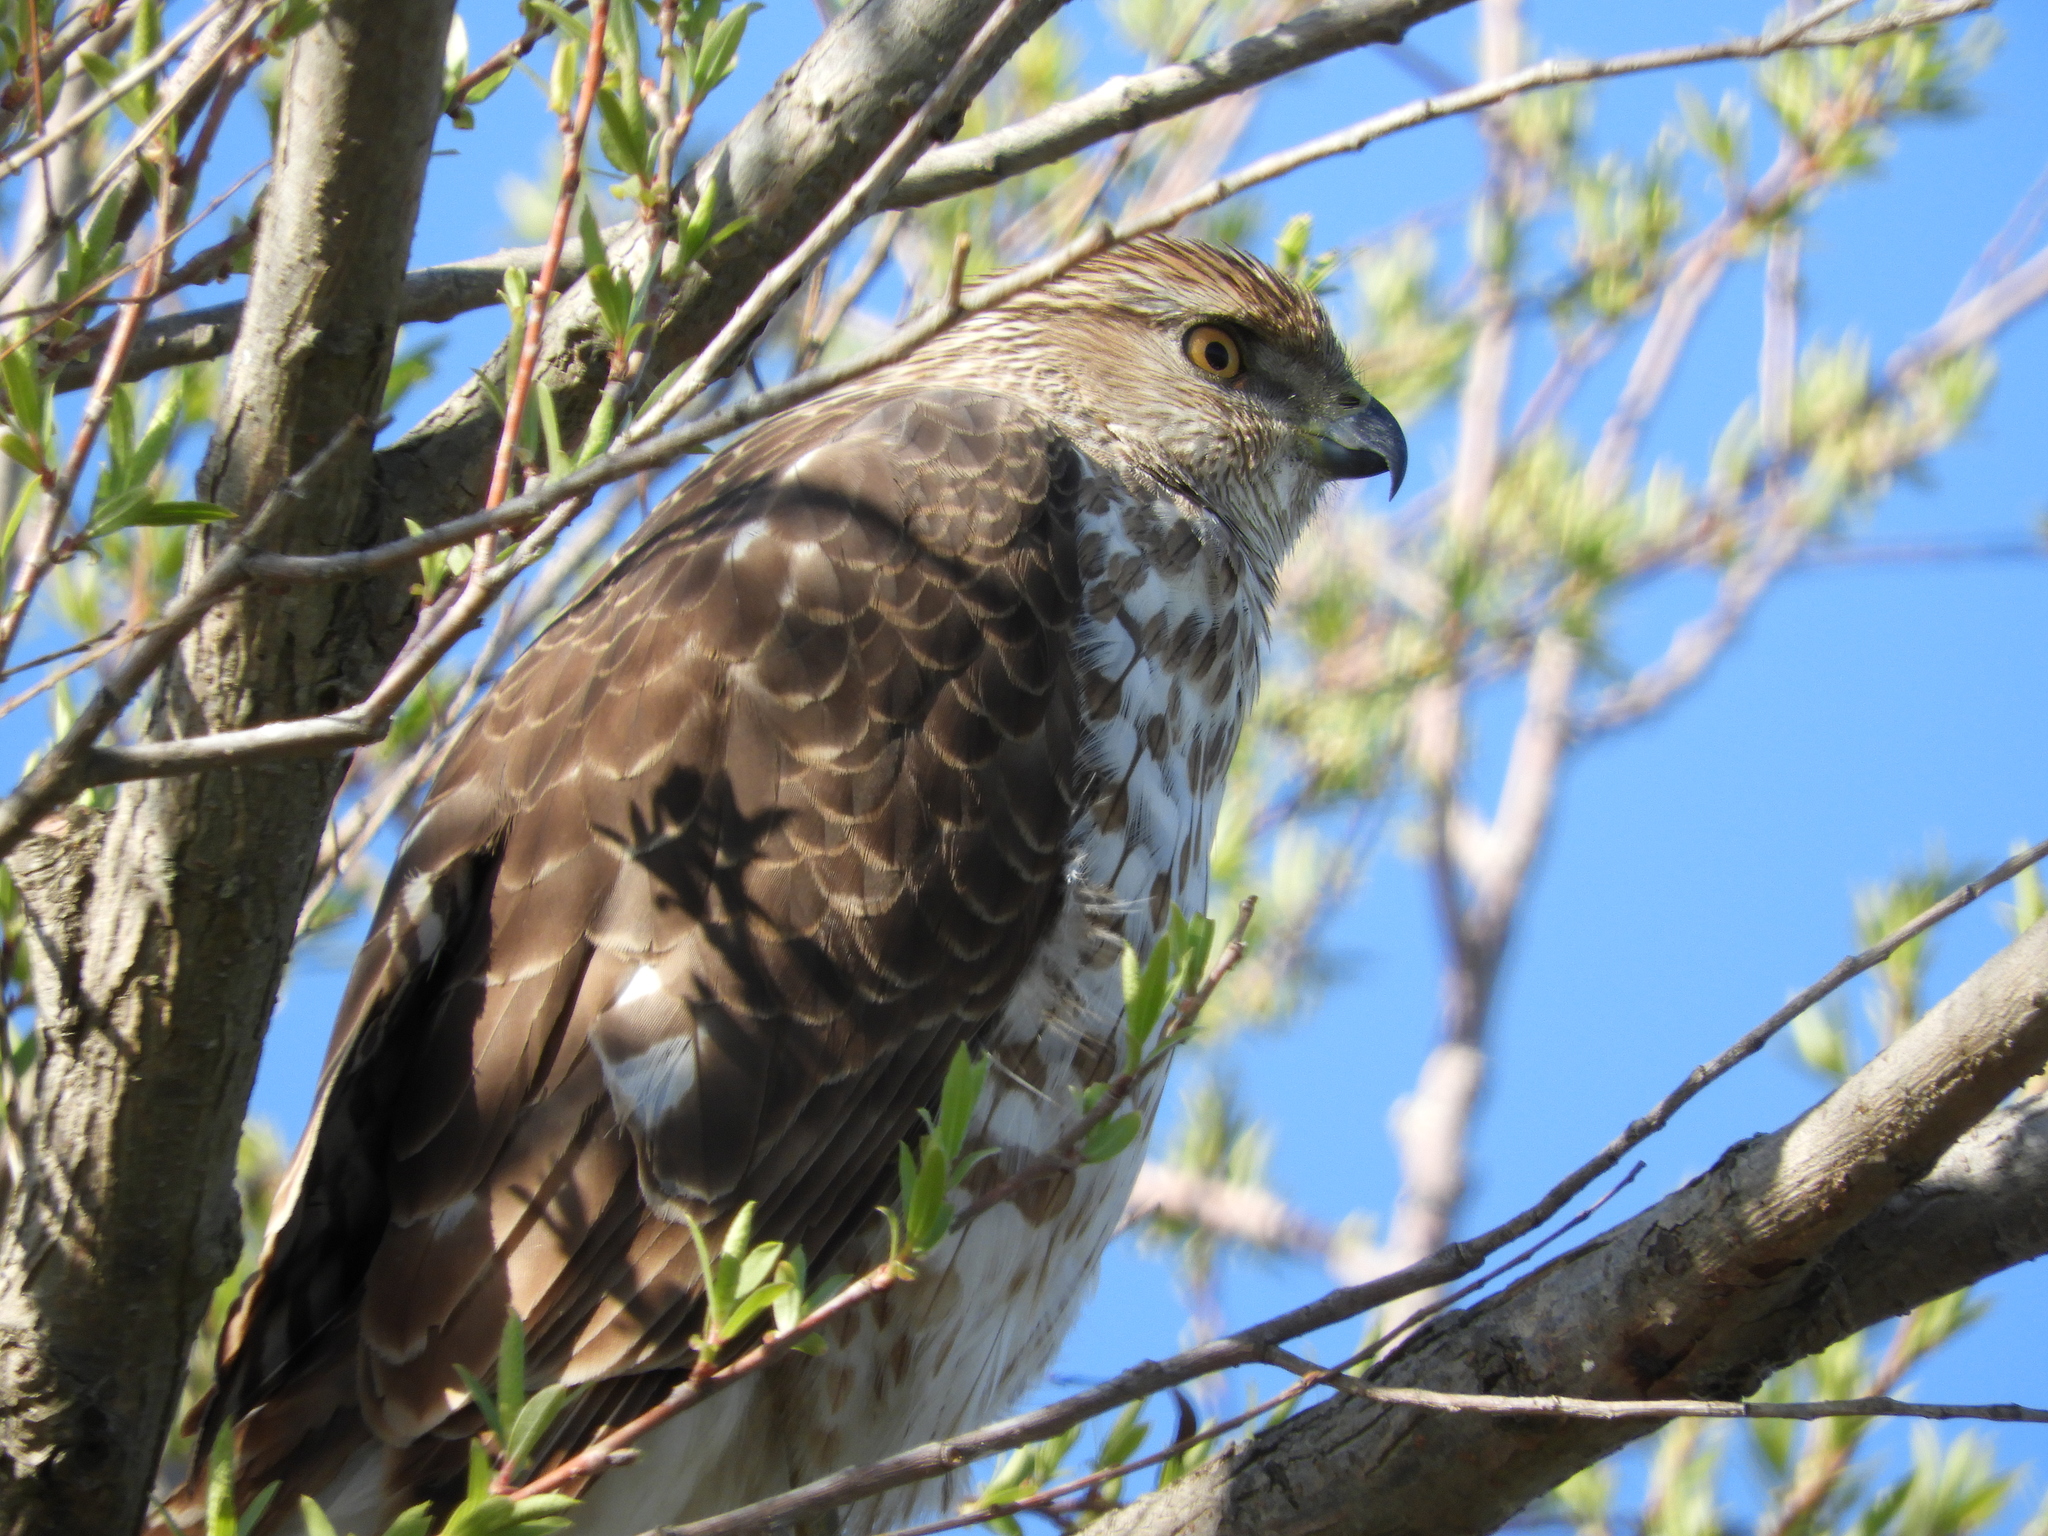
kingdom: Animalia
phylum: Chordata
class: Aves
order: Accipitriformes
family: Accipitridae
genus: Accipiter
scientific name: Accipiter cooperii
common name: Cooper's hawk
